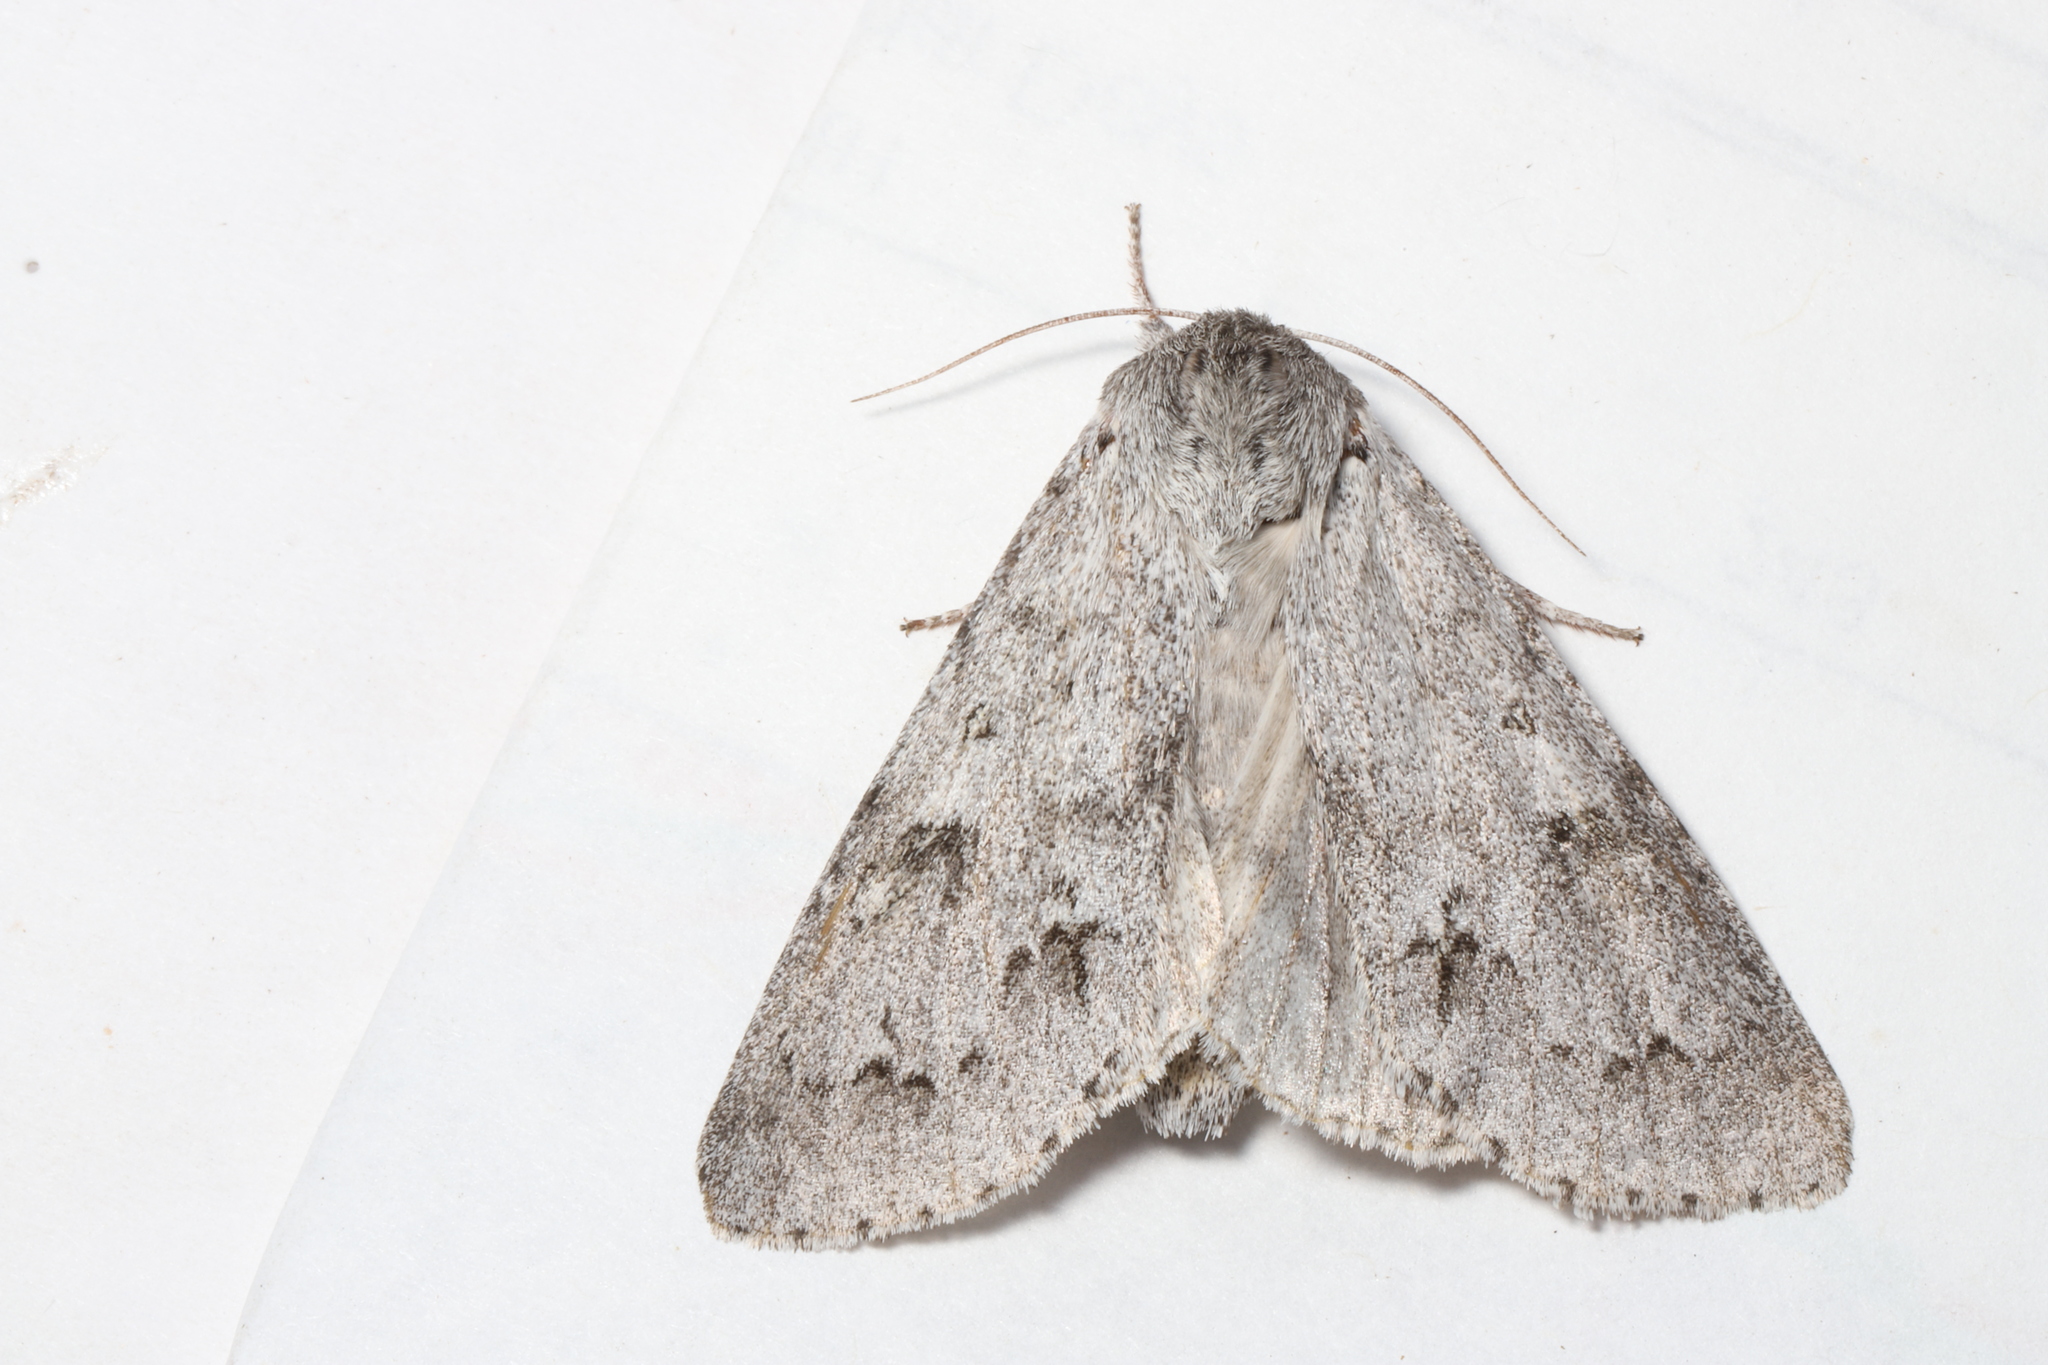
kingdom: Animalia
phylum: Arthropoda
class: Insecta
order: Lepidoptera
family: Noctuidae
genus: Acronicta
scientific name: Acronicta insita
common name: Large gray dagger
